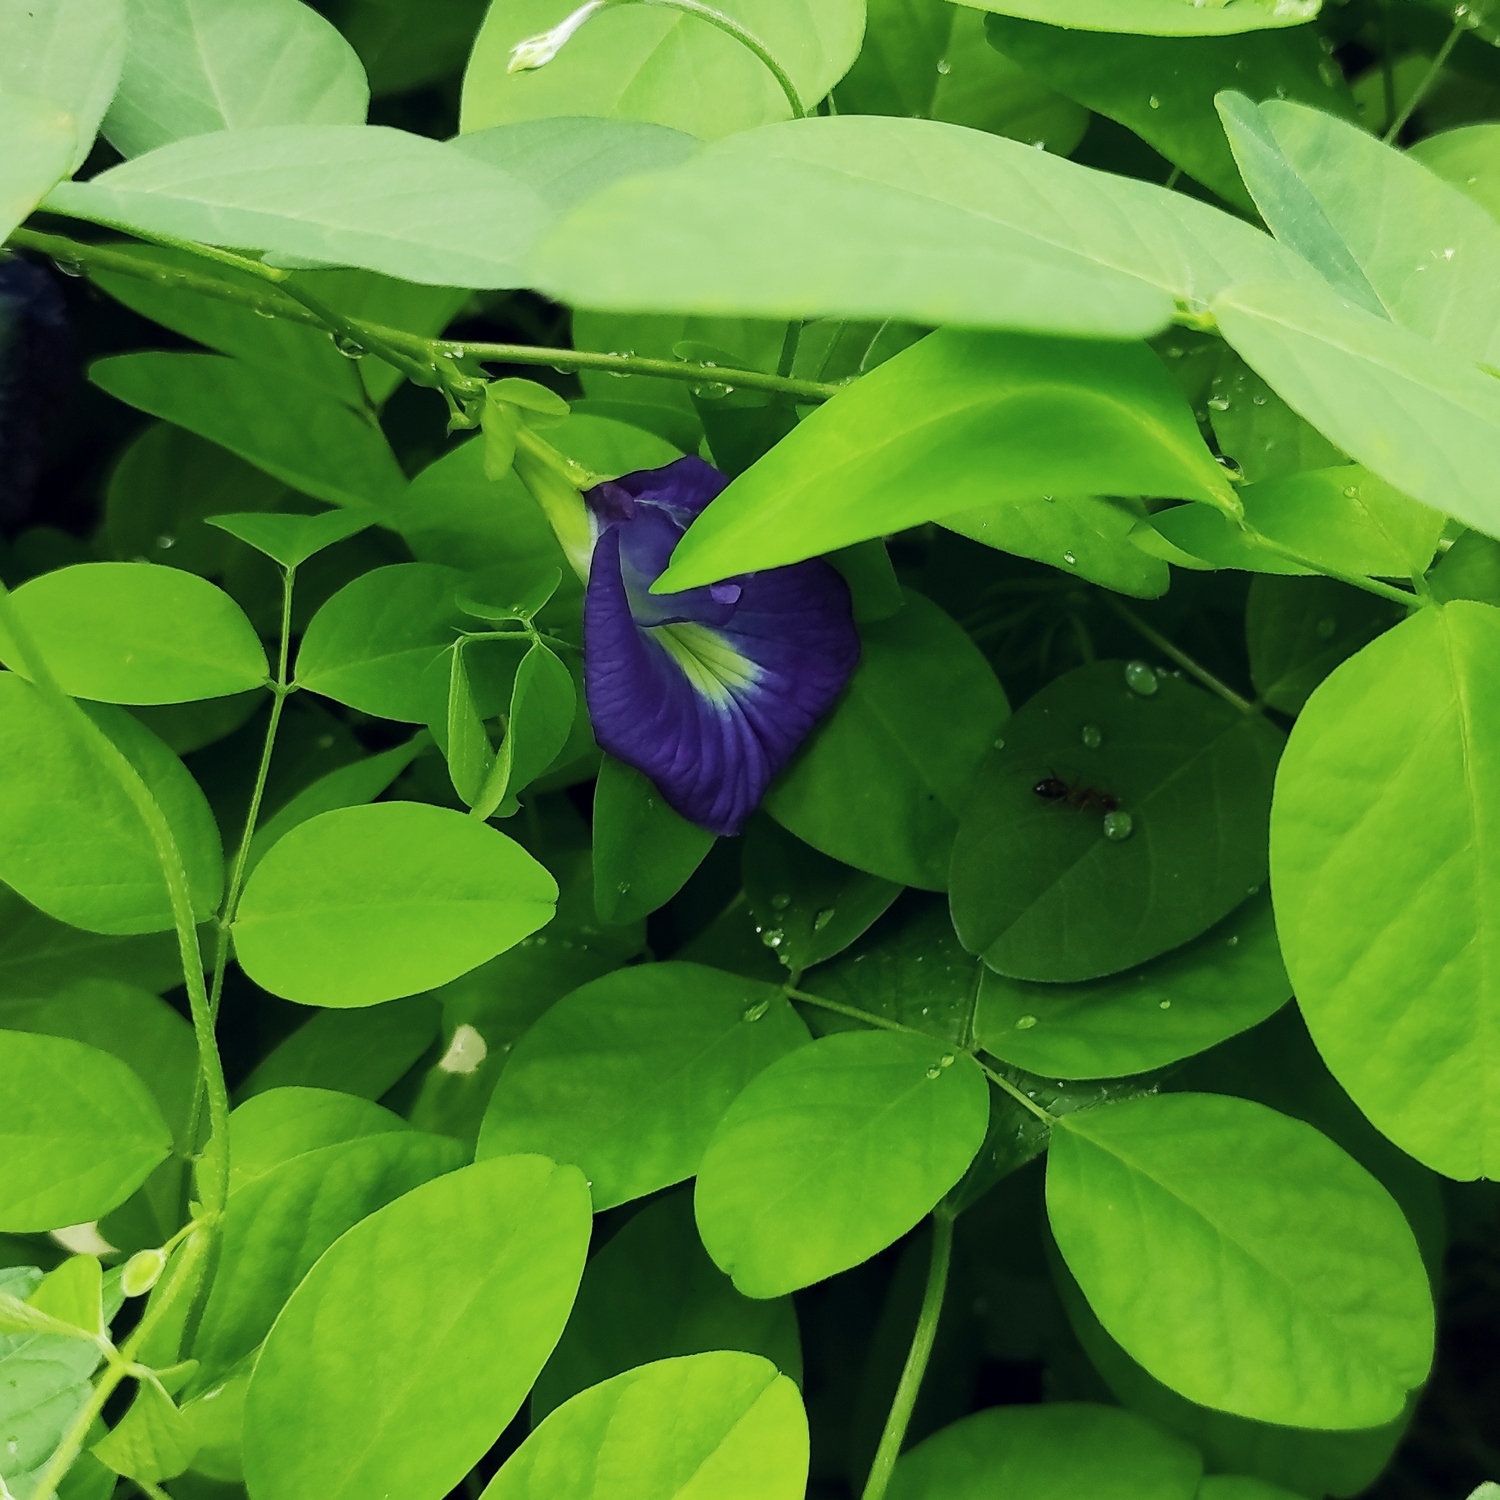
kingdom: Plantae
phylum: Tracheophyta
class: Magnoliopsida
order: Fabales
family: Fabaceae
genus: Clitoria
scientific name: Clitoria ternatea
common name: Asian pigeonwings
